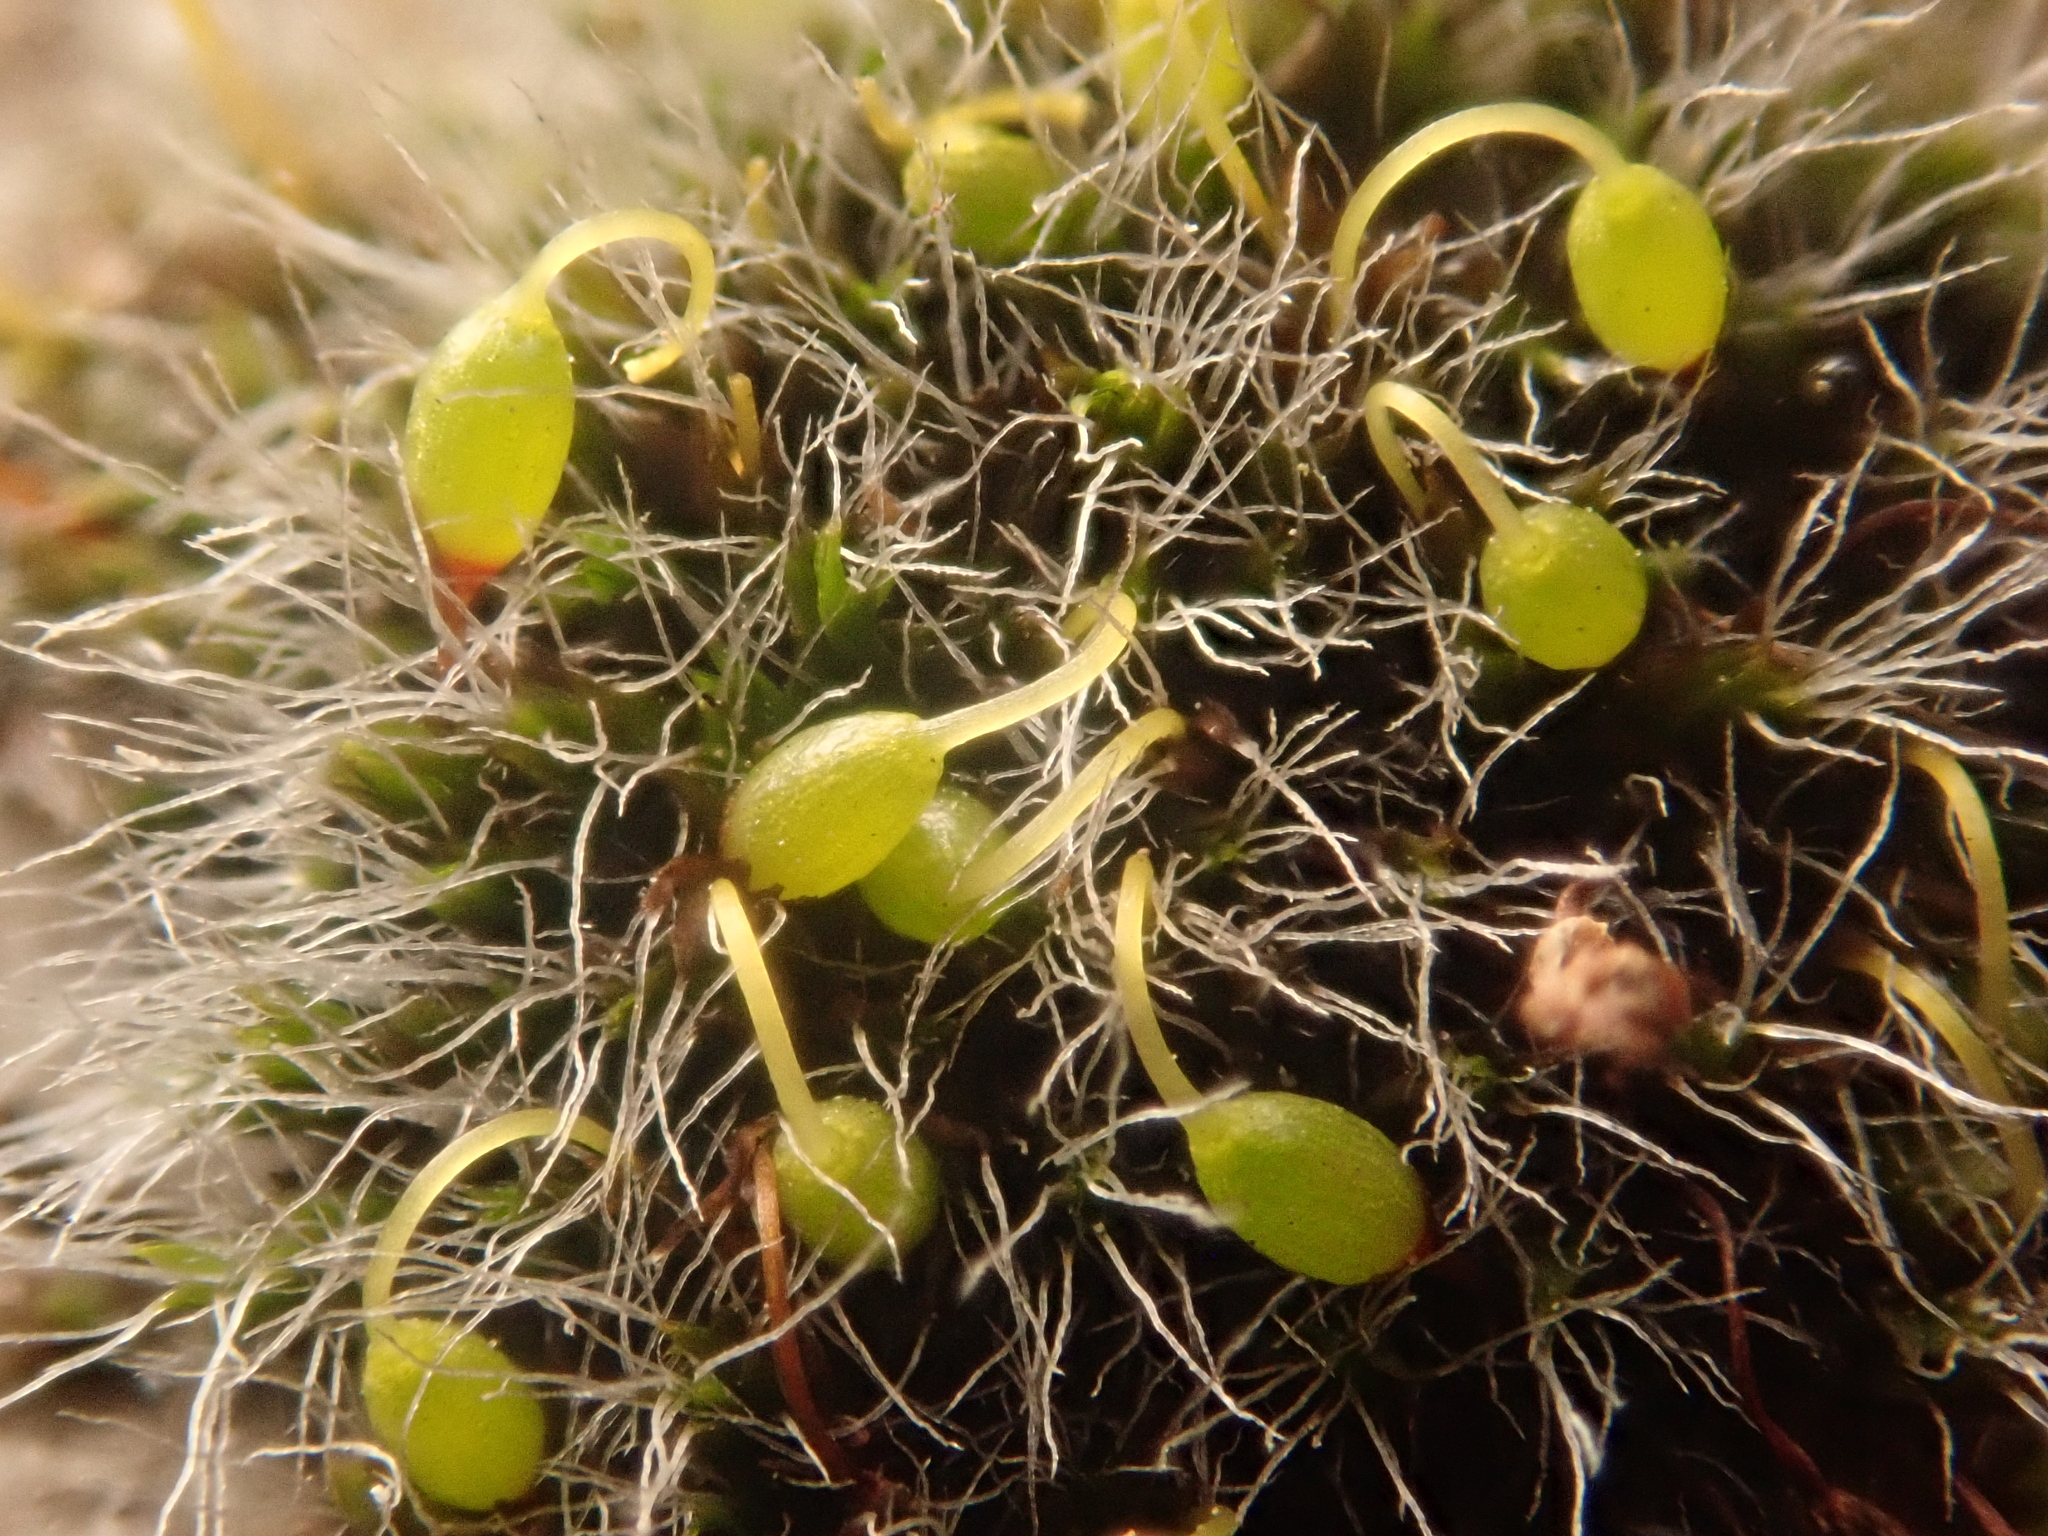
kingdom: Plantae
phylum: Bryophyta
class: Bryopsida
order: Grimmiales
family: Grimmiaceae
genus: Grimmia
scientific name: Grimmia pulvinata
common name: Grey-cushioned grimmia
